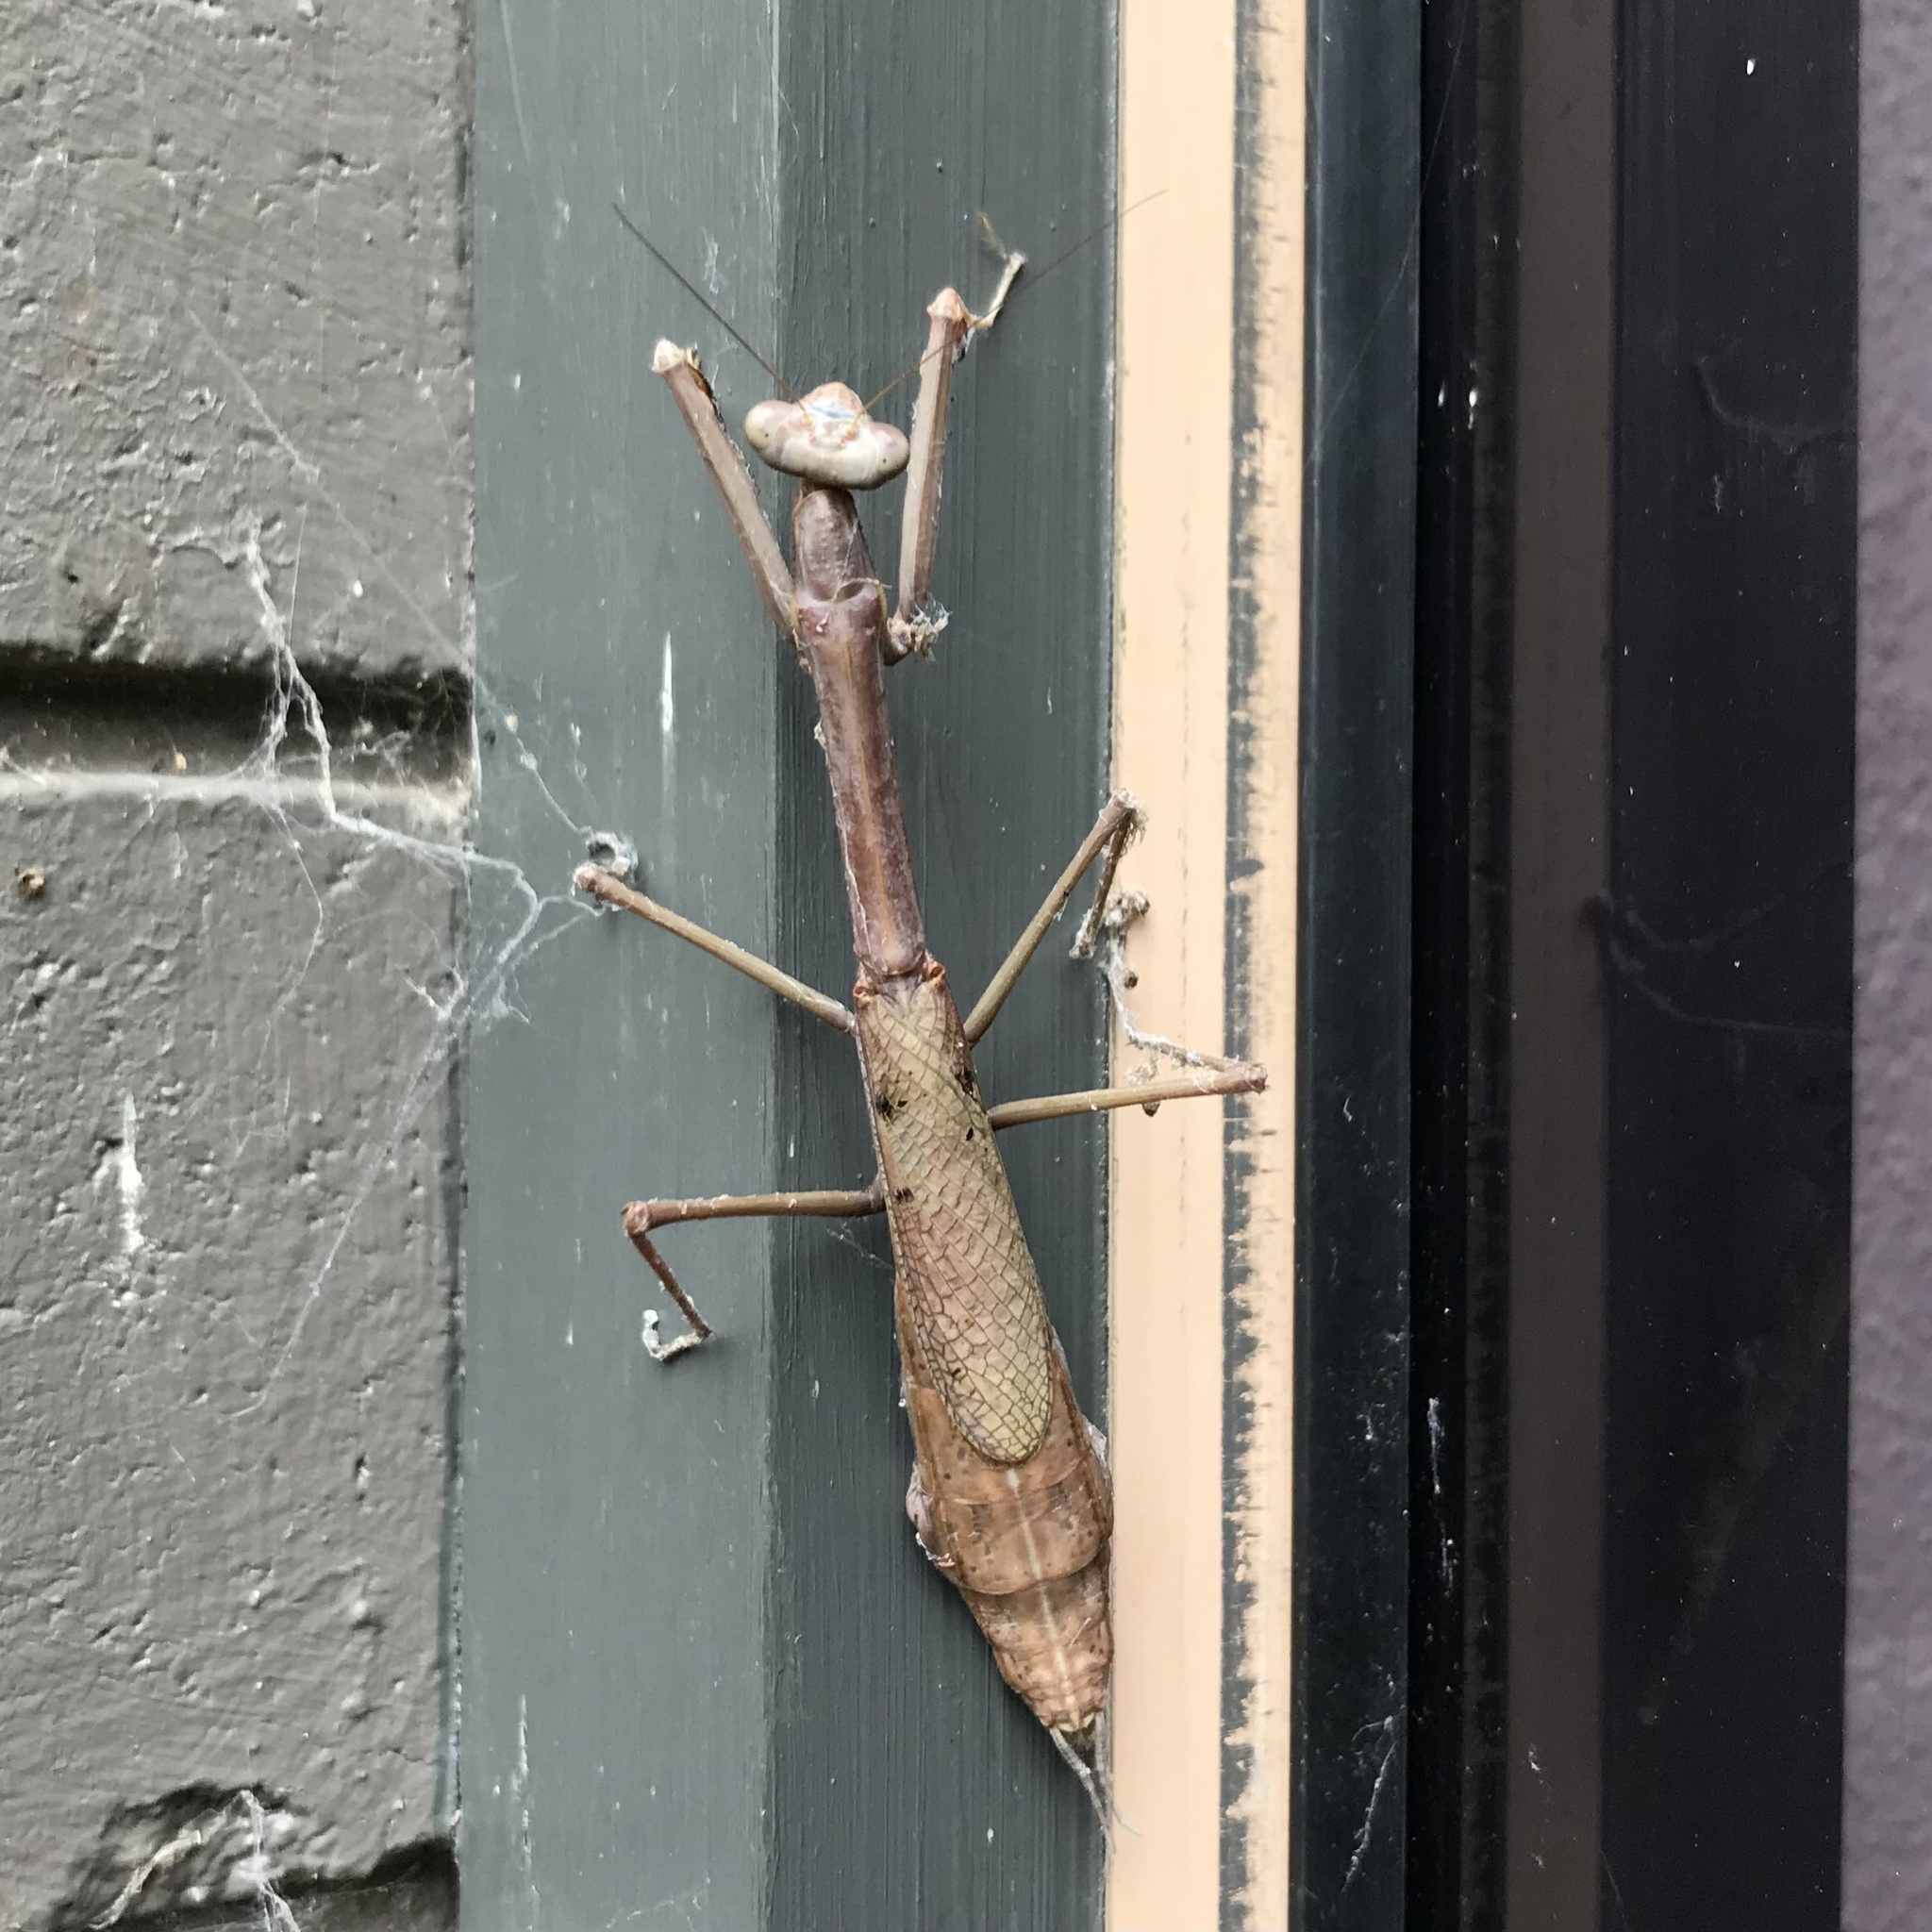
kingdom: Animalia
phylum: Arthropoda
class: Insecta
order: Mantodea
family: Mantidae
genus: Archimantis
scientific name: Archimantis latistyla
